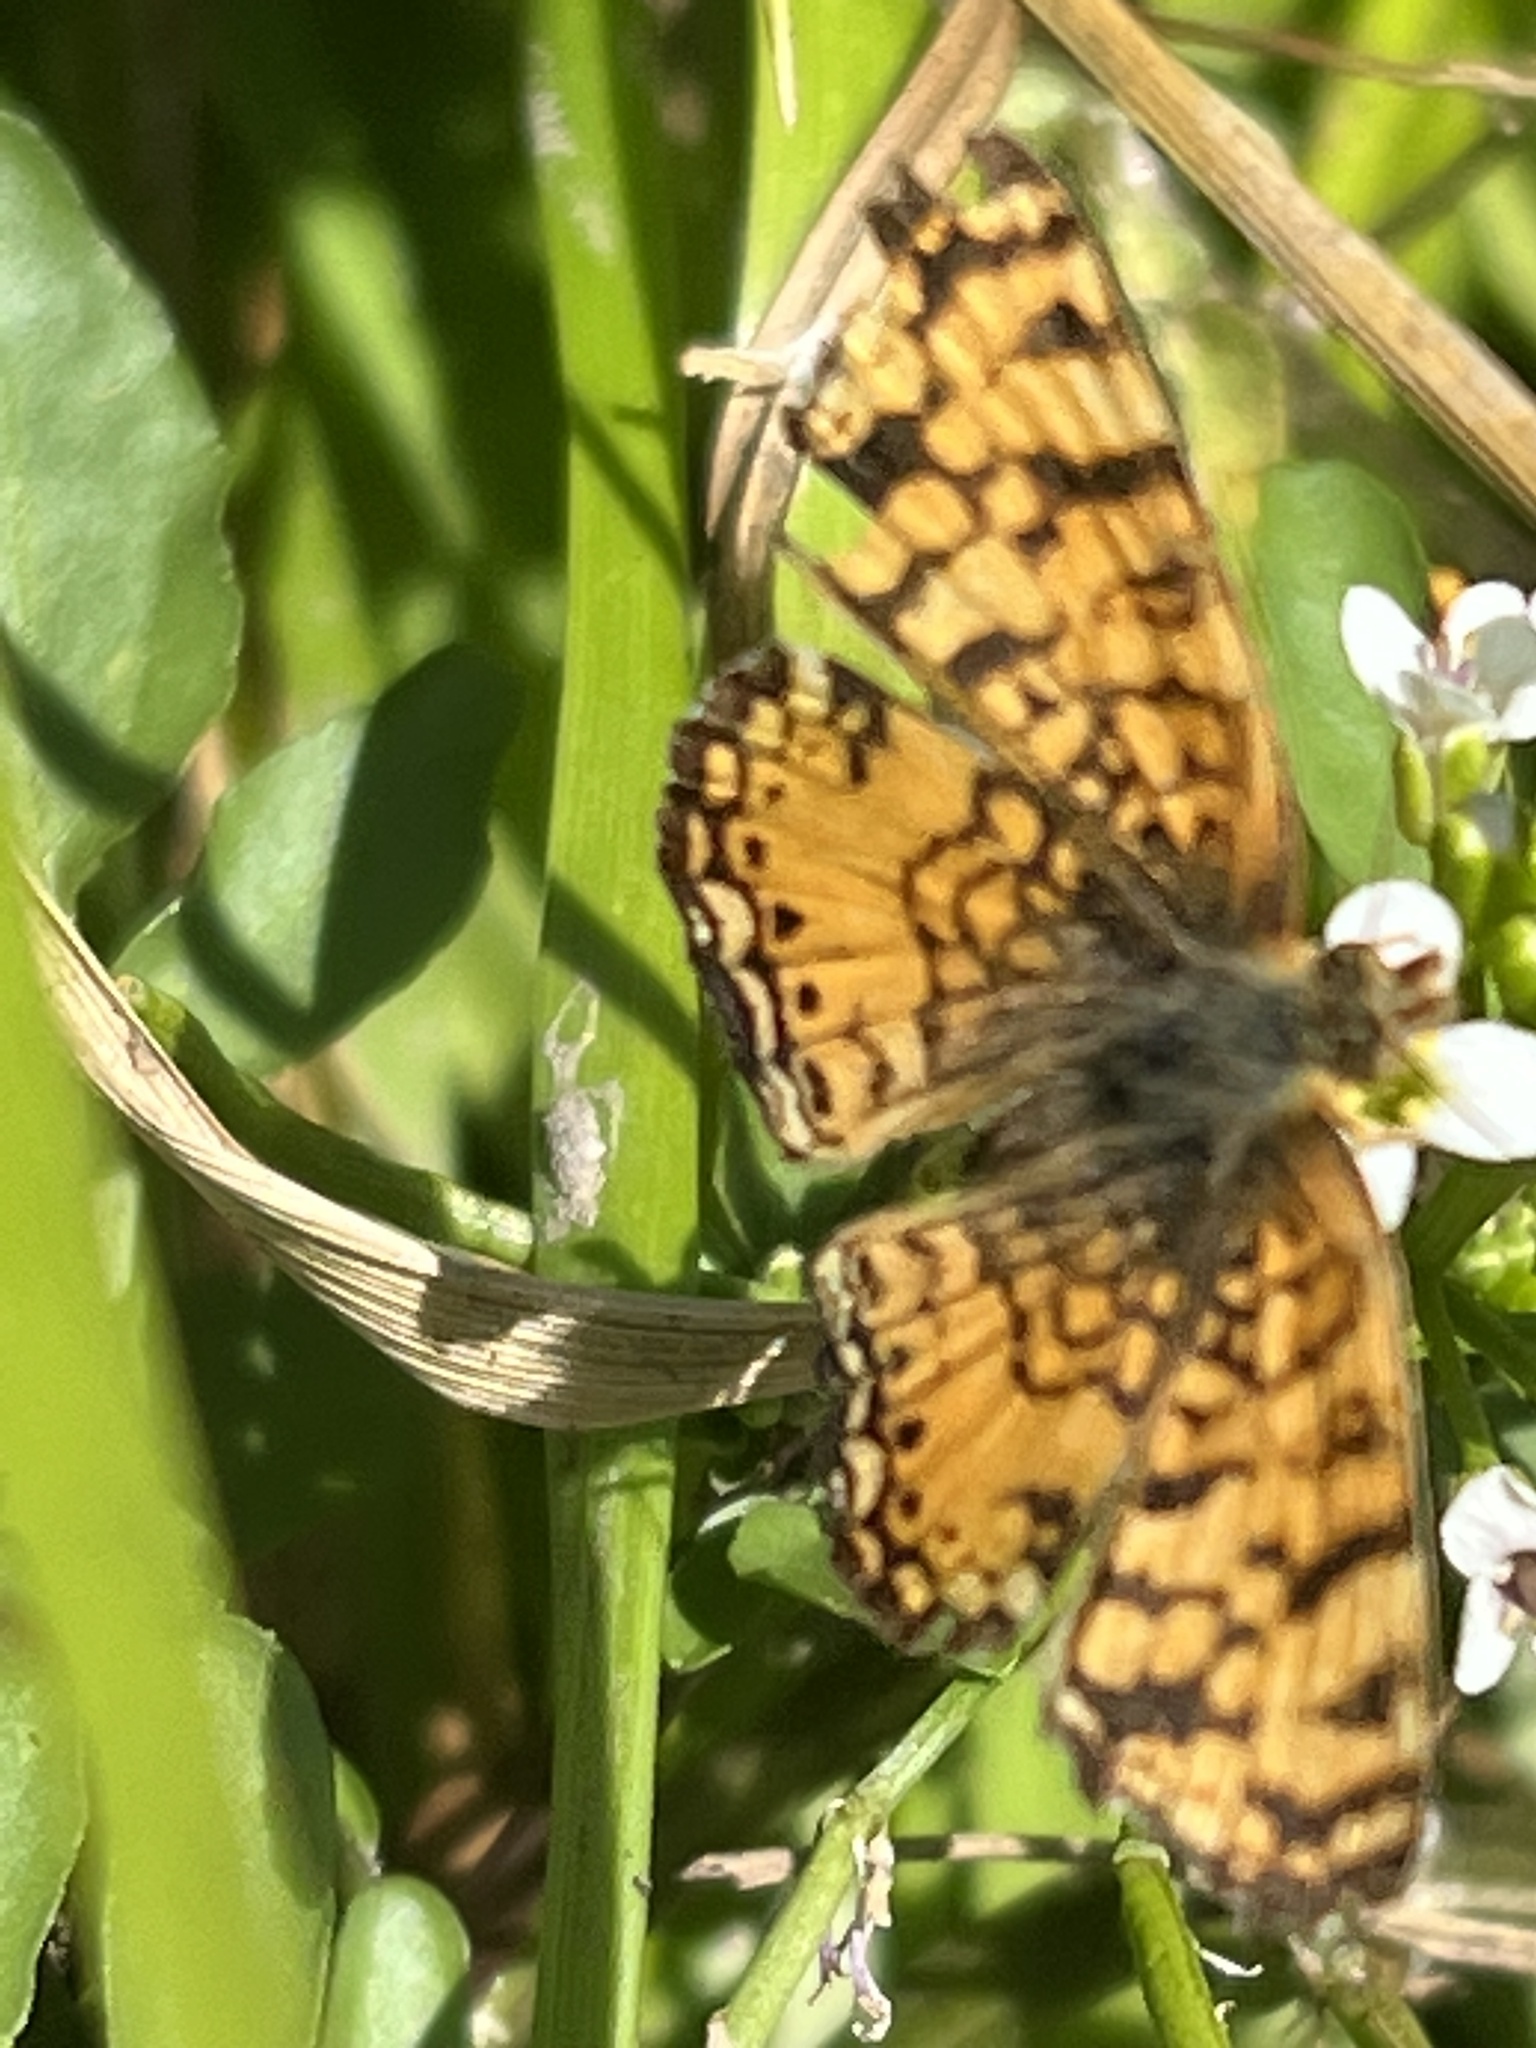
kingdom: Animalia
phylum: Arthropoda
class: Insecta
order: Lepidoptera
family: Nymphalidae
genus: Eresia
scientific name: Eresia aveyrona
